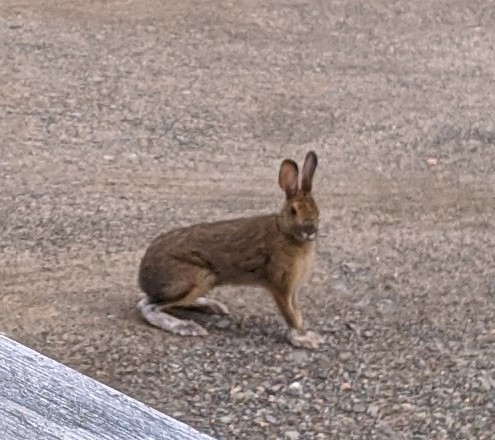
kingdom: Animalia
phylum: Chordata
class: Mammalia
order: Lagomorpha
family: Leporidae
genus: Lepus
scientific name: Lepus americanus
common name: Snowshoe hare
